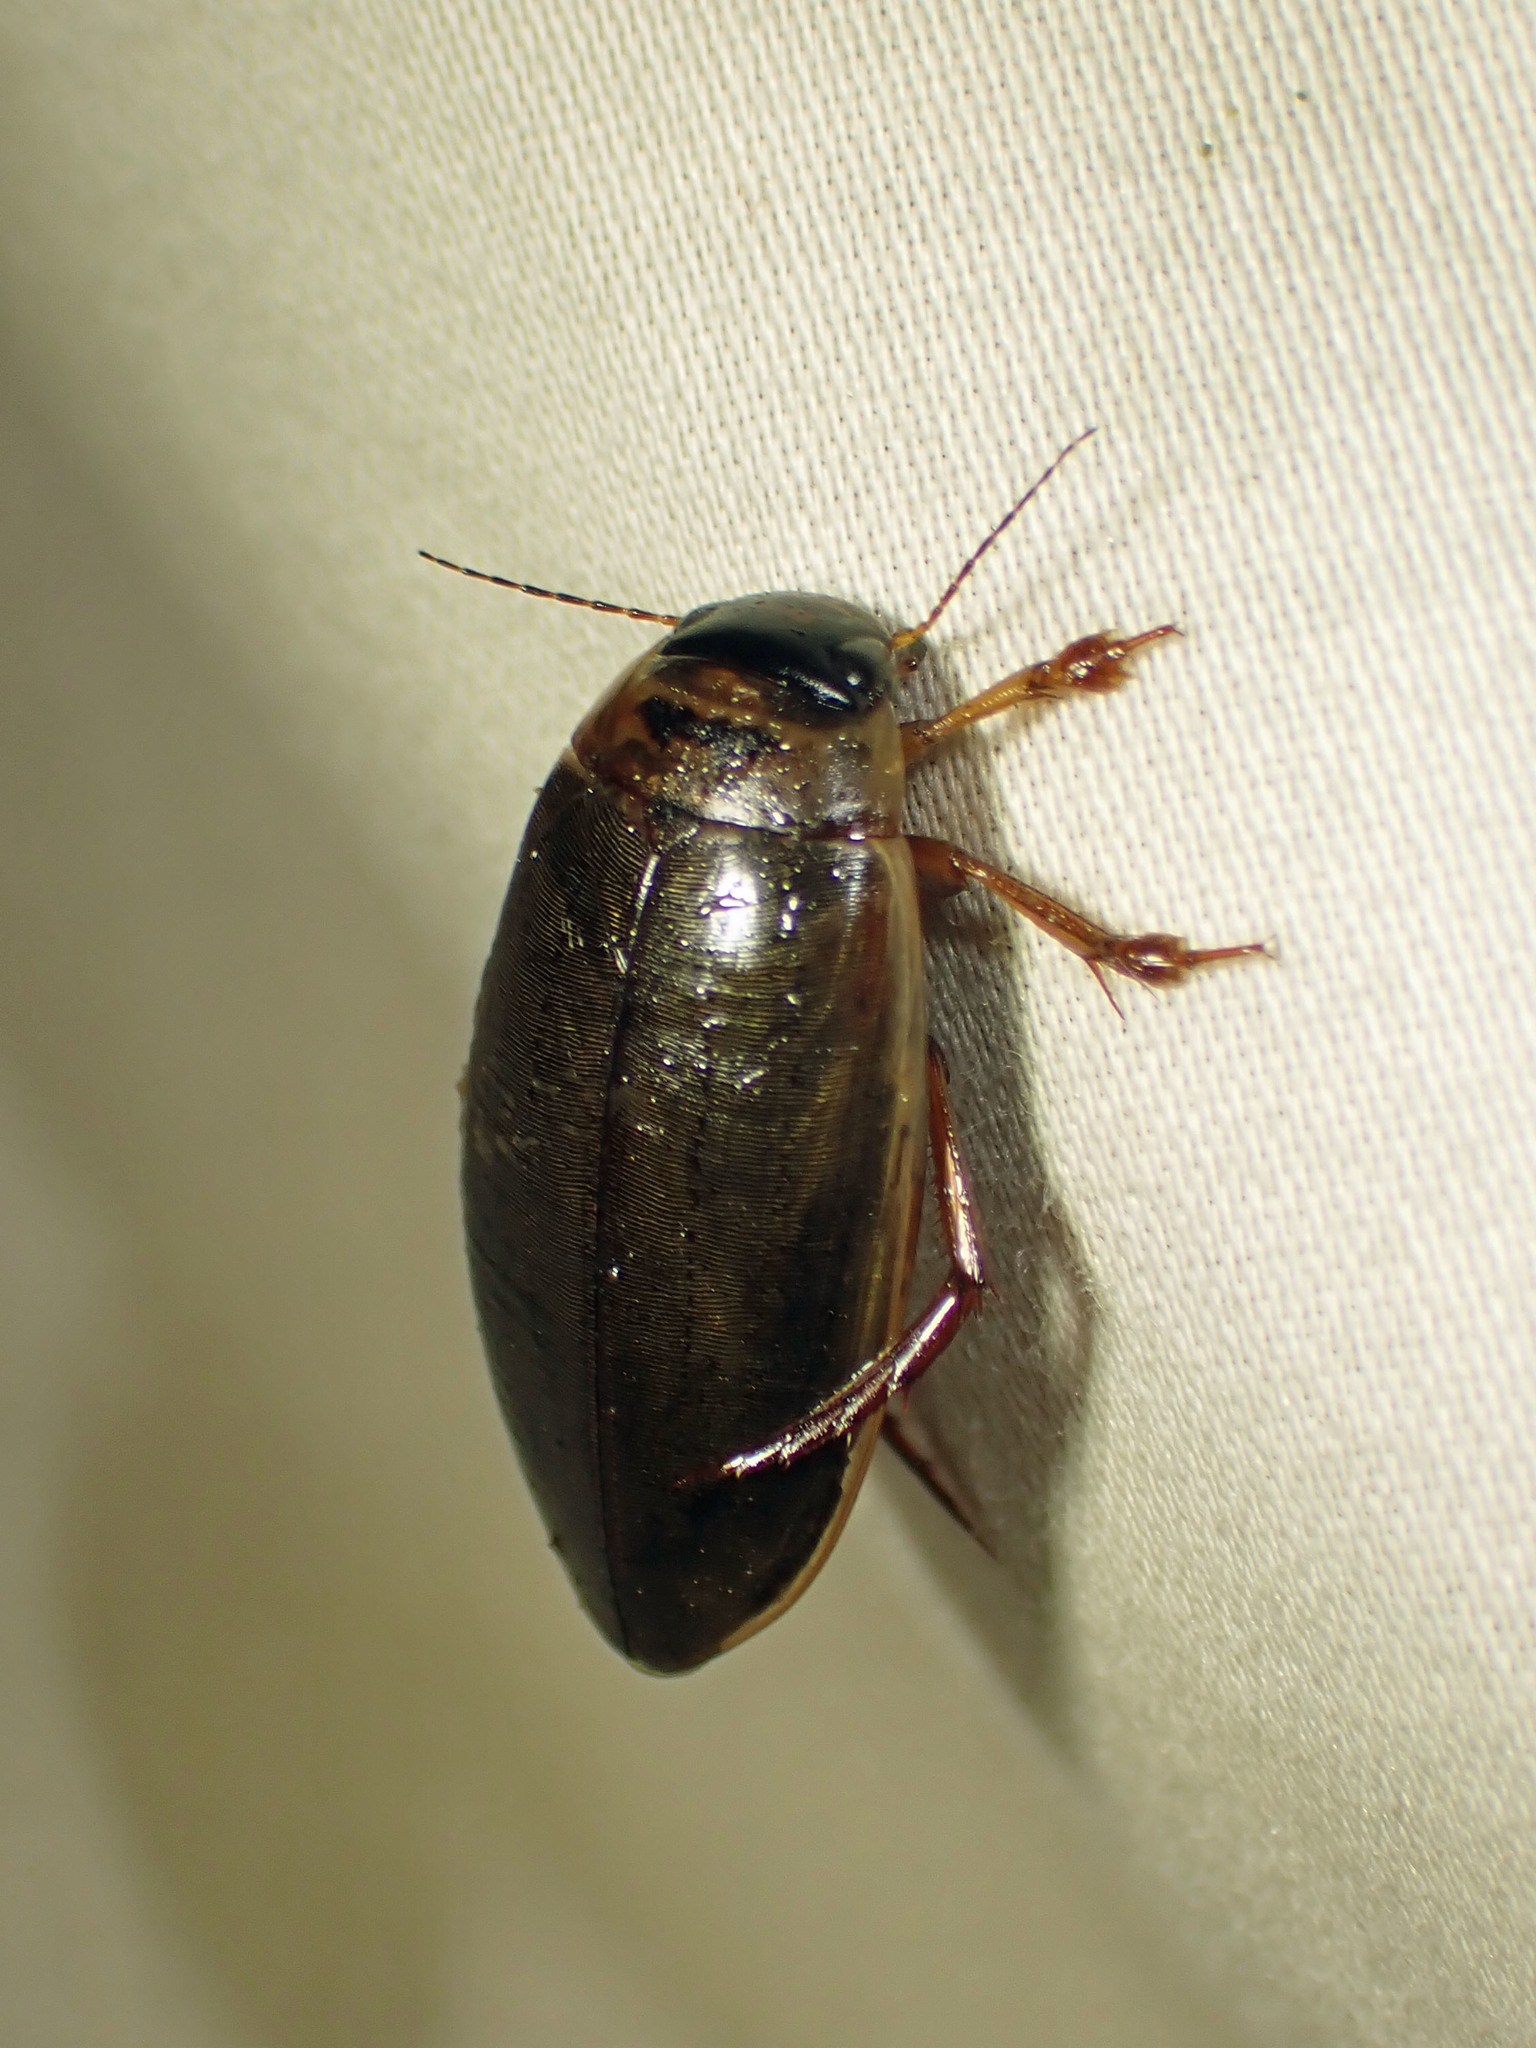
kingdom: Animalia
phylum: Arthropoda
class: Insecta
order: Coleoptera
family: Dytiscidae
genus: Colymbetes
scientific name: Colymbetes sculptilis
